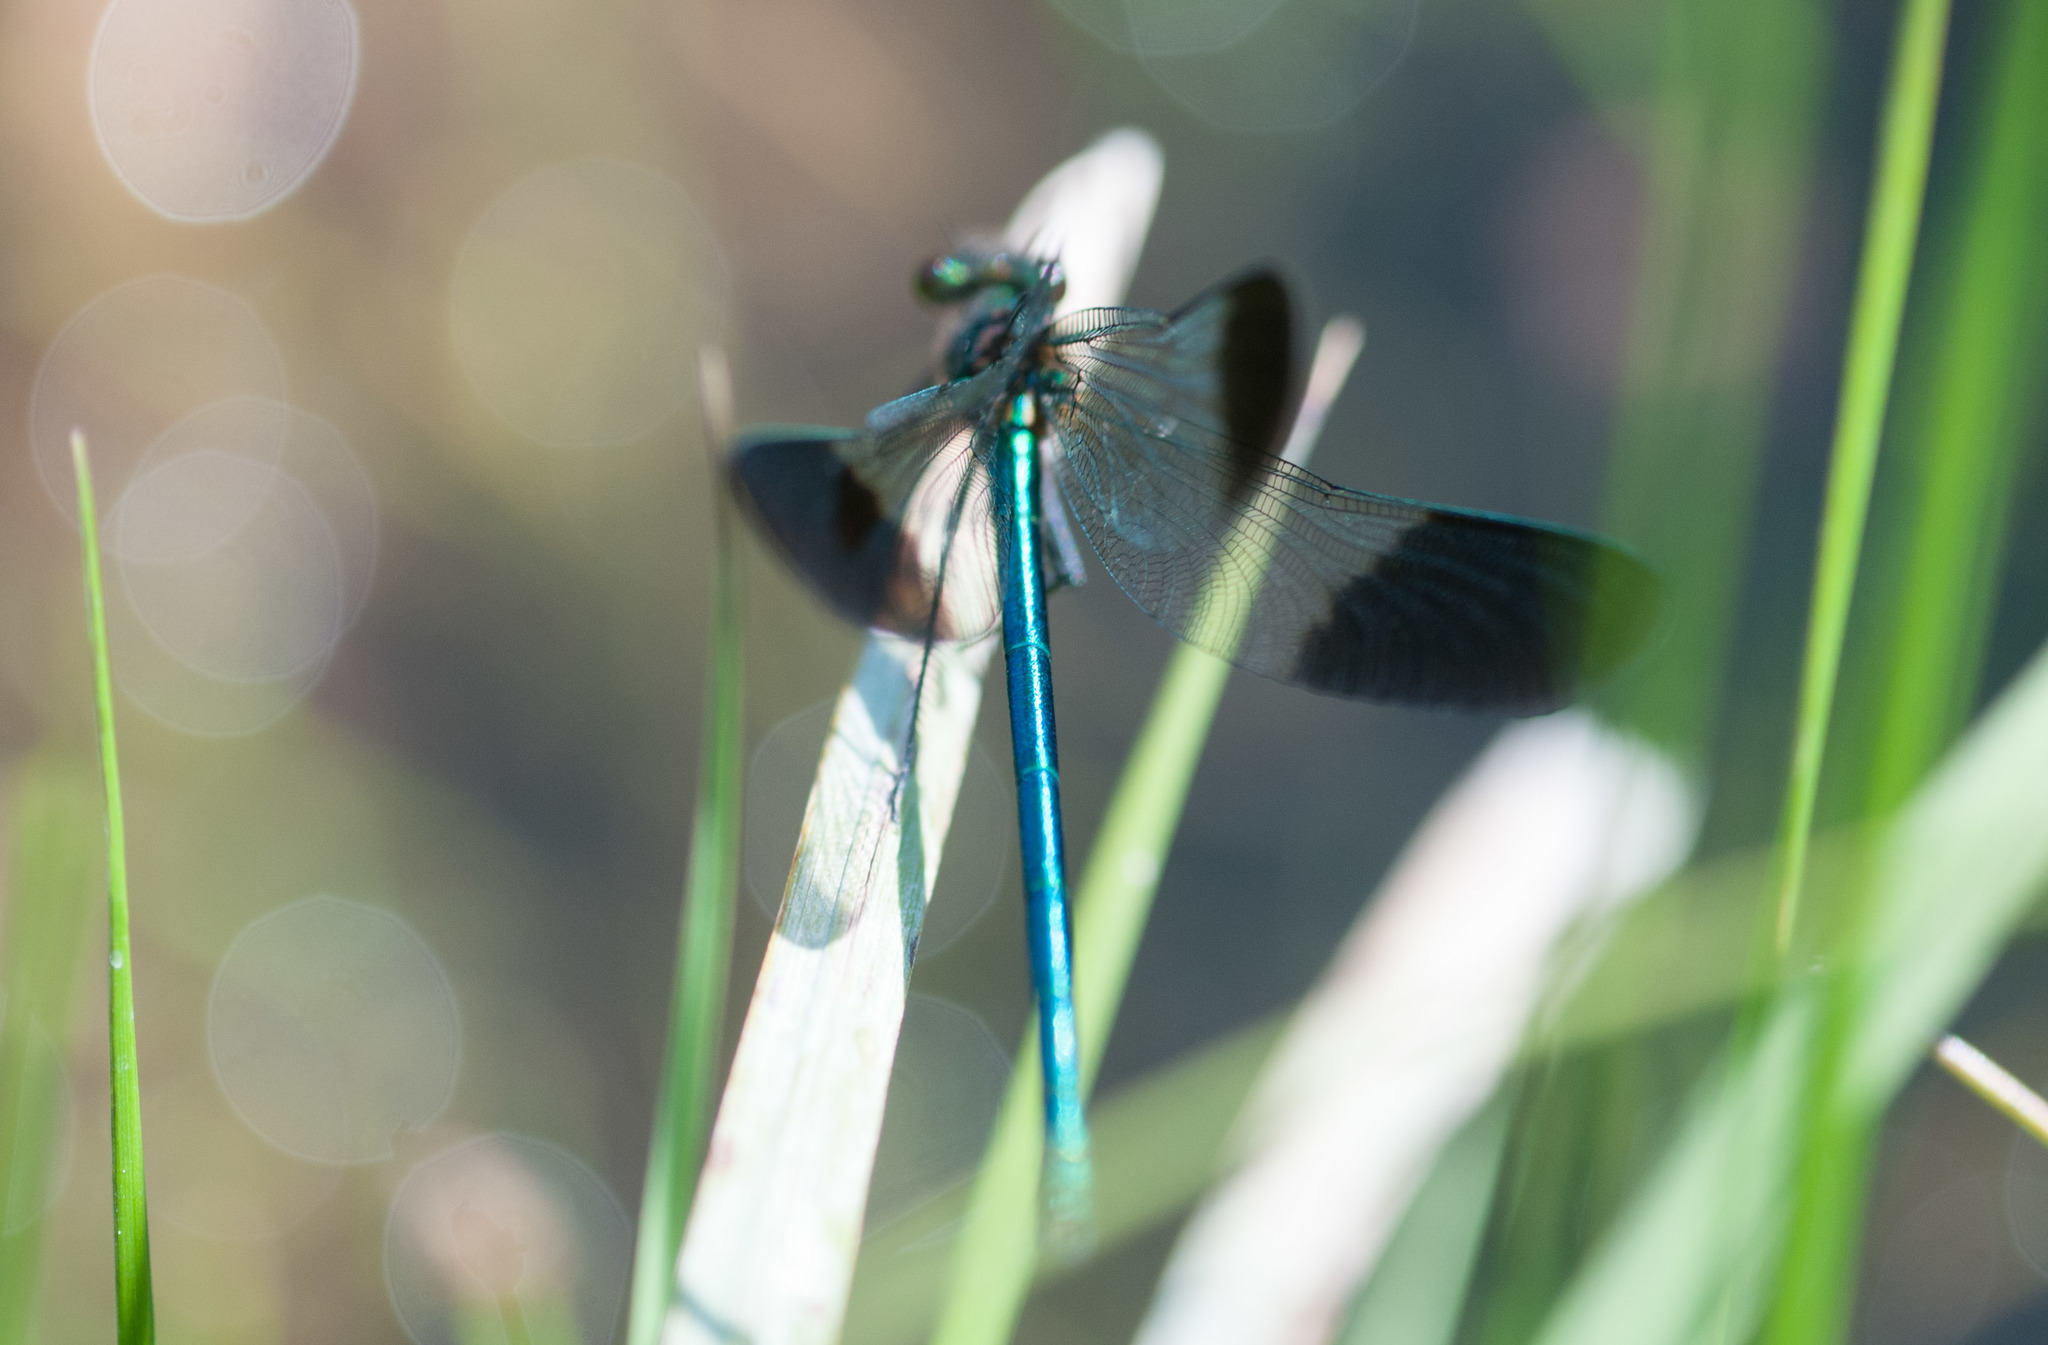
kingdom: Animalia
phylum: Arthropoda
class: Insecta
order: Odonata
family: Calopterygidae
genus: Calopteryx
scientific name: Calopteryx aequabilis
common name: River jewelwing
